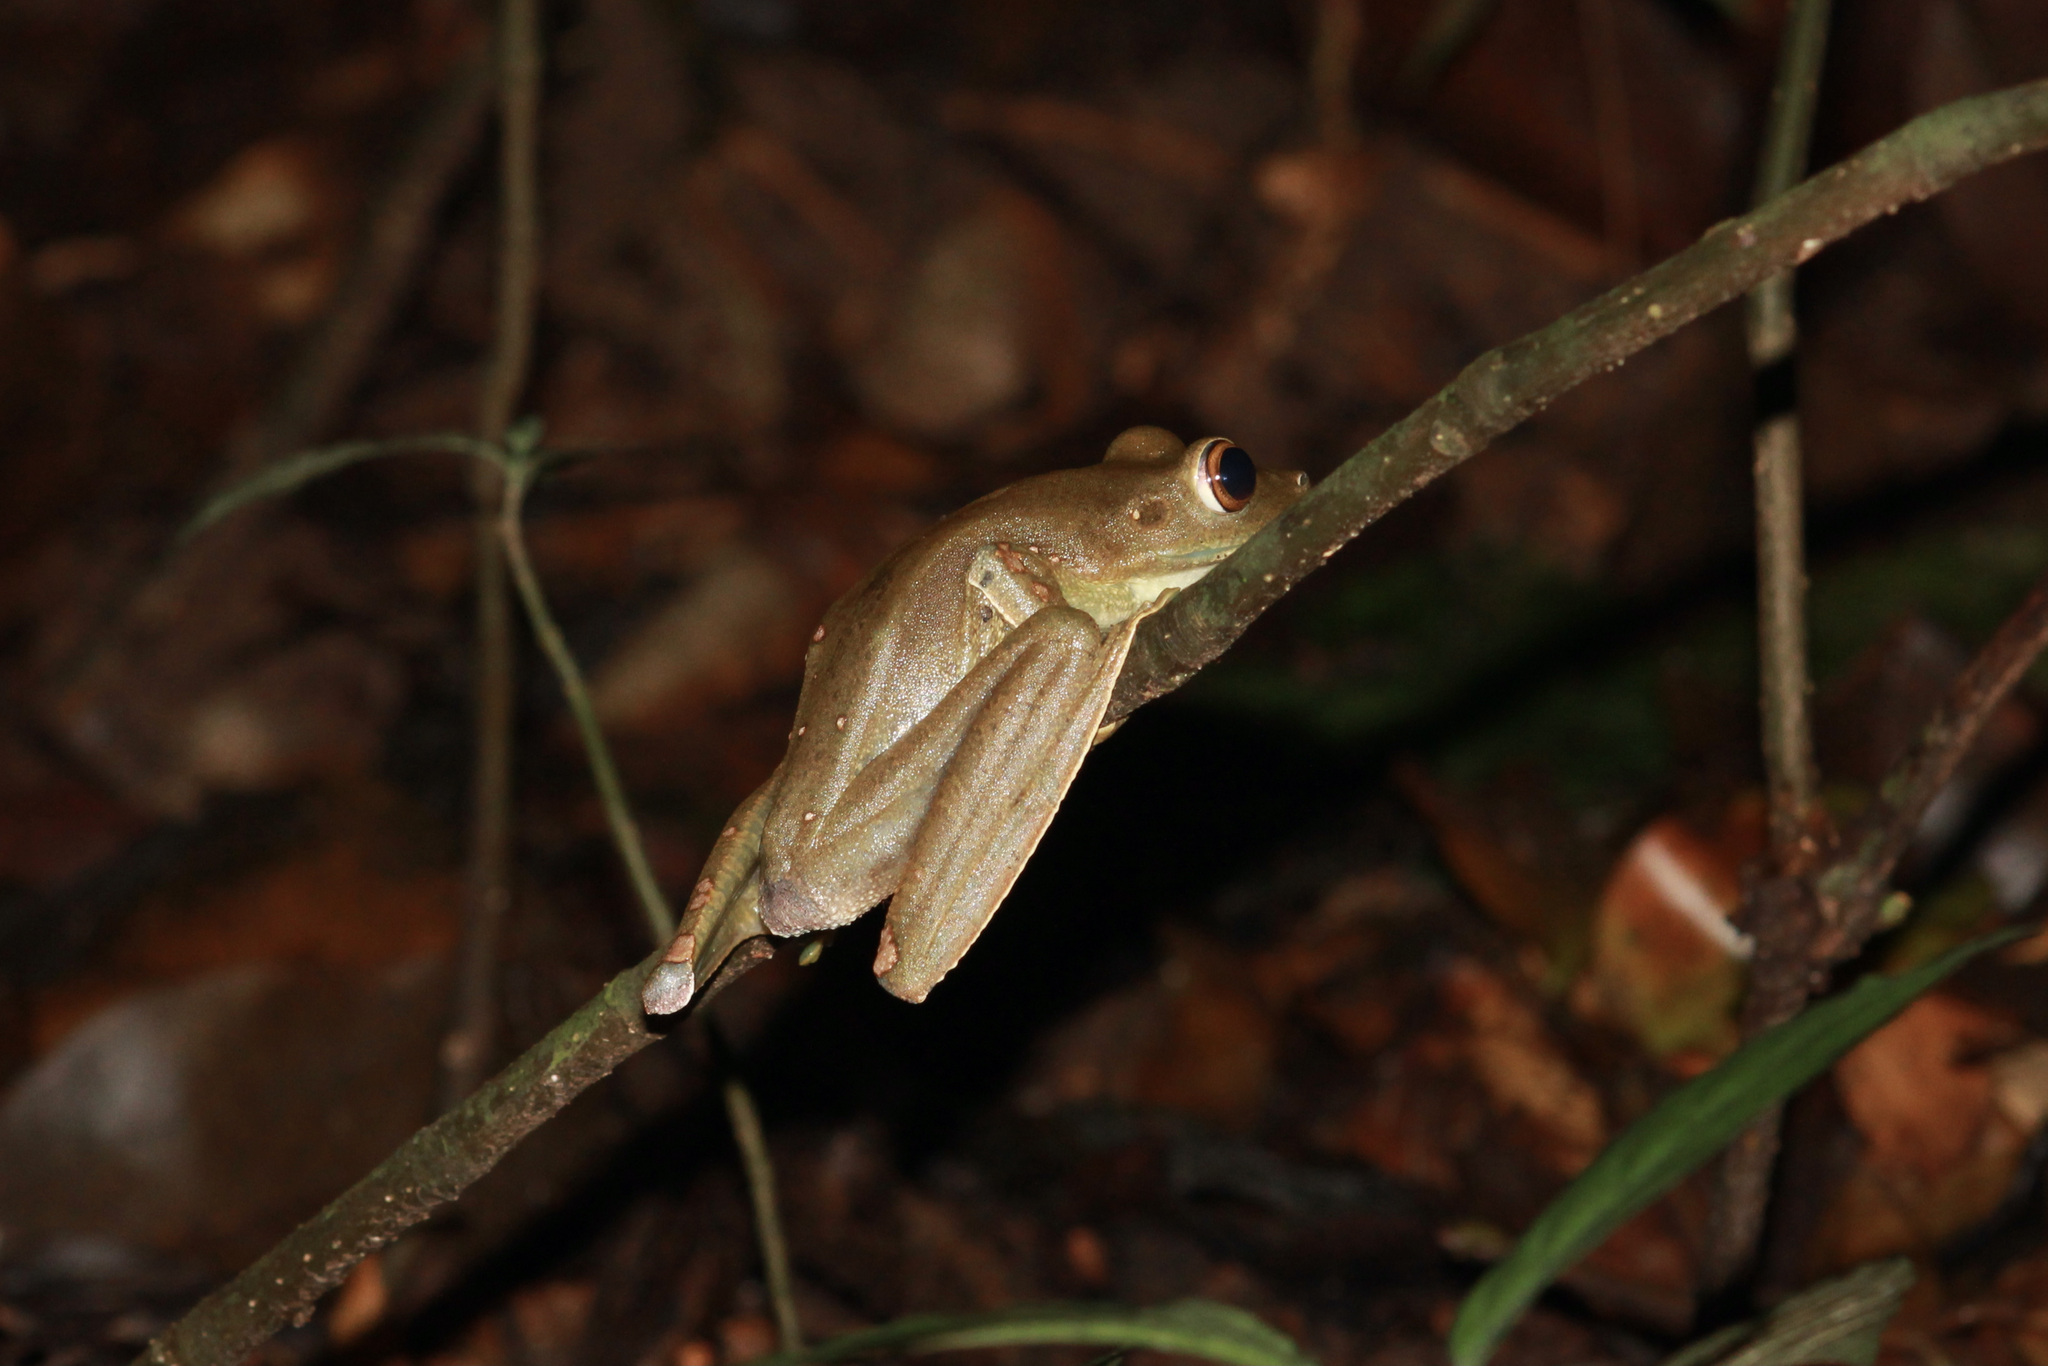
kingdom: Animalia
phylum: Chordata
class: Amphibia
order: Anura
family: Hylidae
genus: Boana
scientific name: Boana boans
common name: Giant gladiator treefrog
